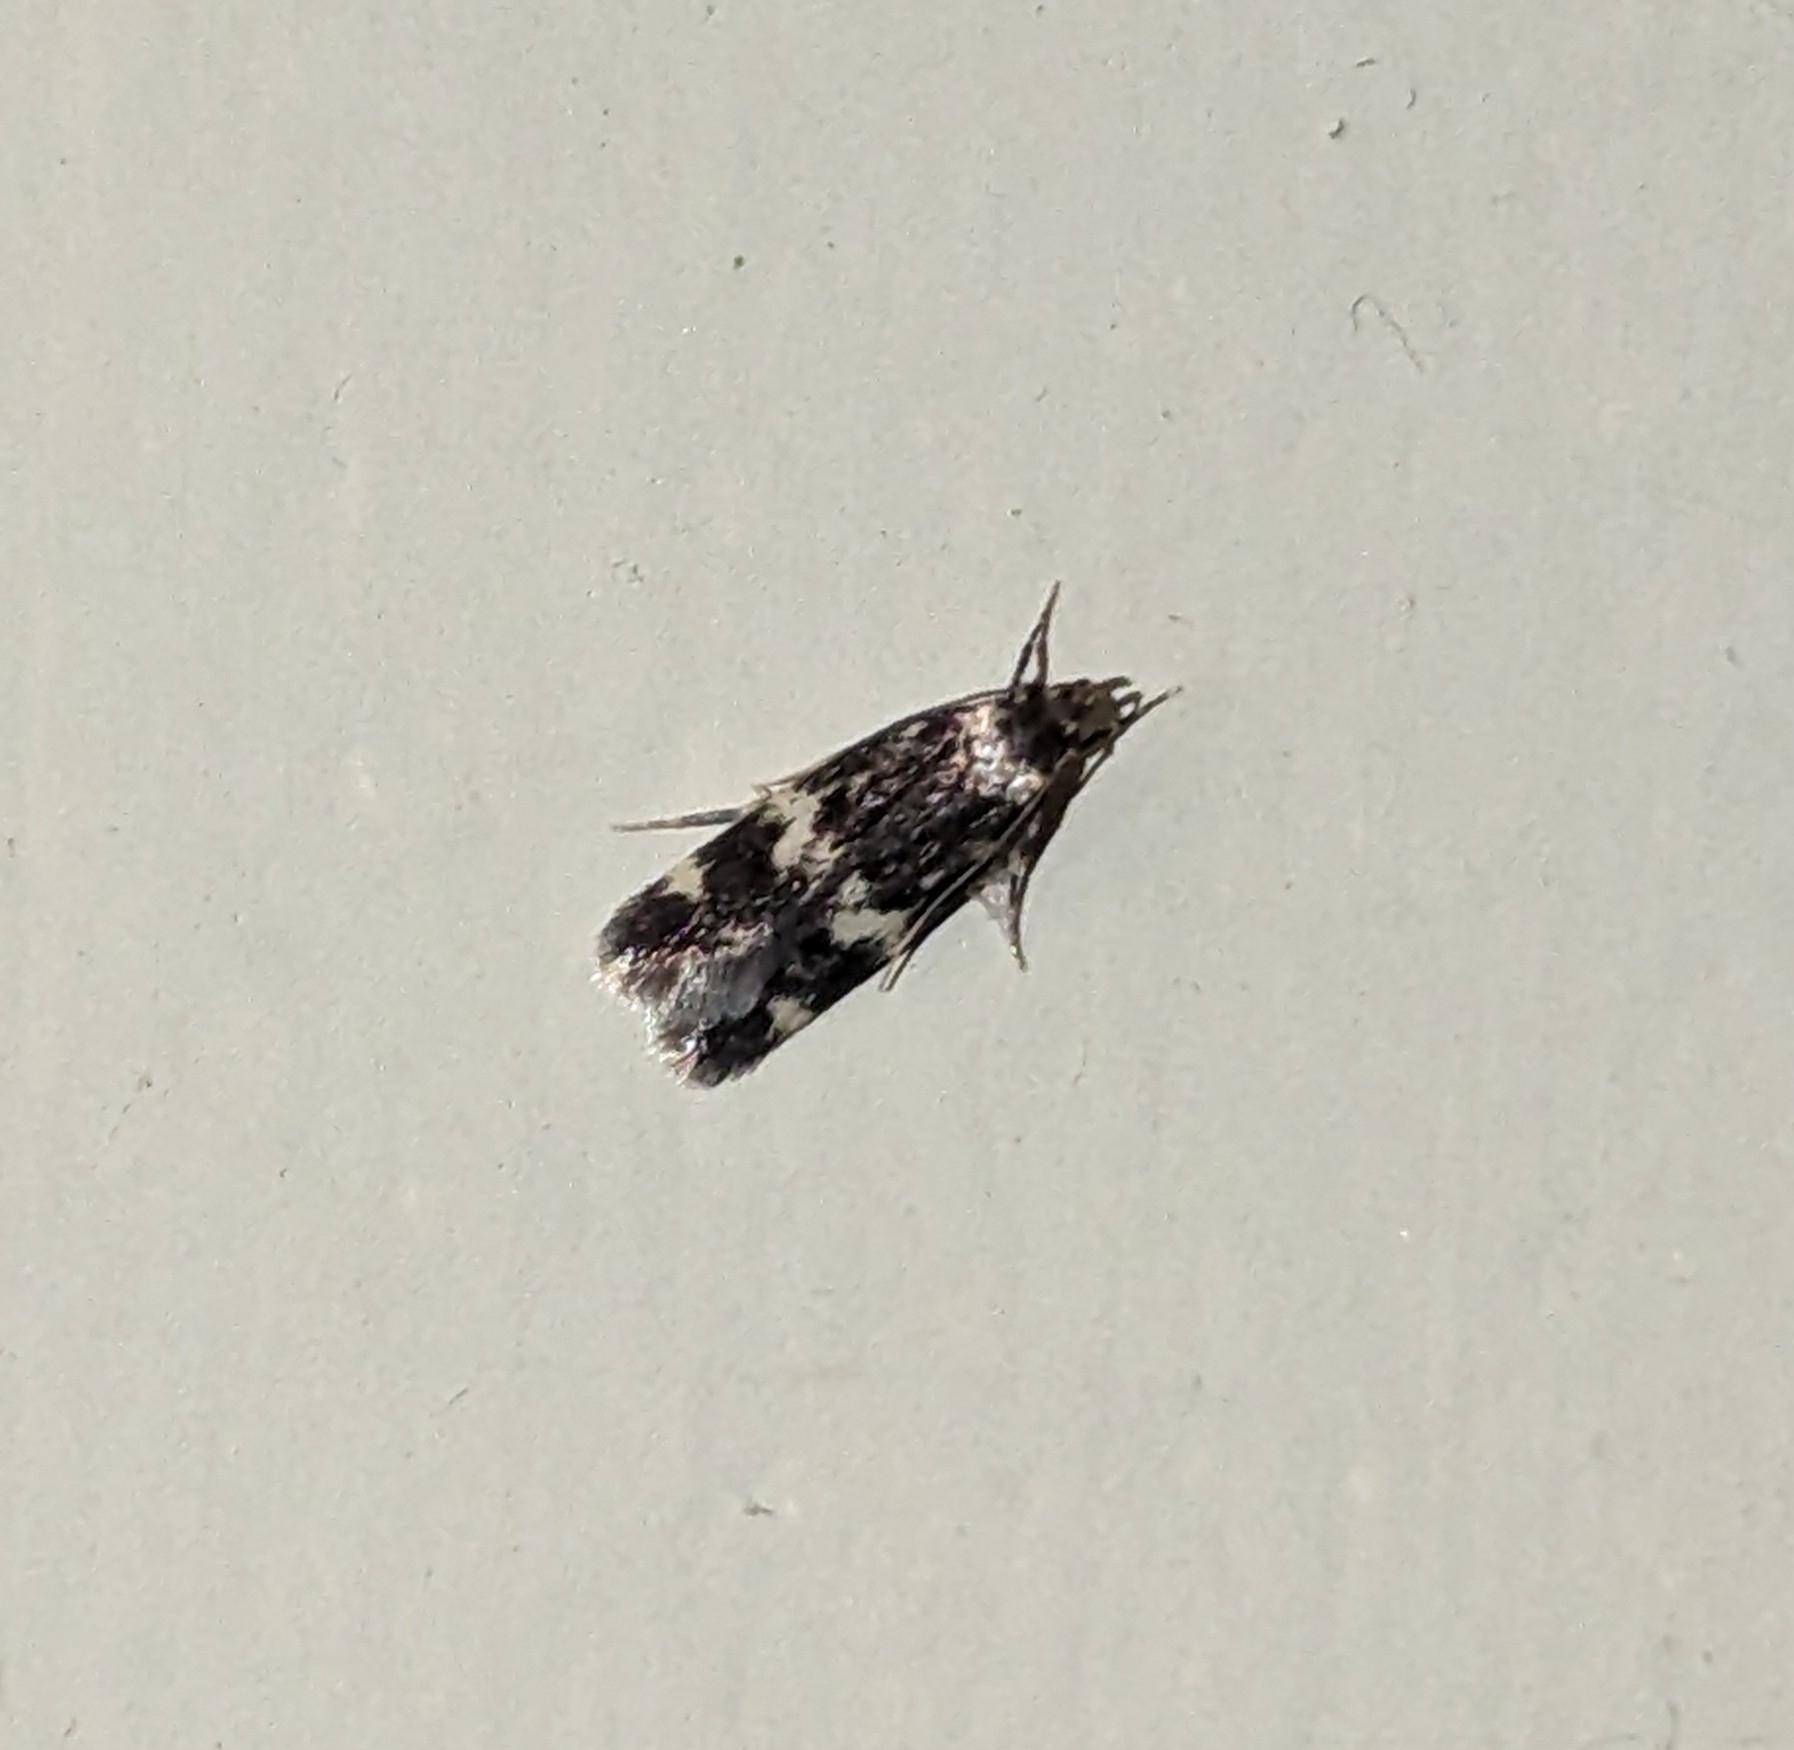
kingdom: Animalia
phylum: Arthropoda
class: Insecta
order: Lepidoptera
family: Autostichidae
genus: Oegoconia
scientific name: Oegoconia quadripuncta
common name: Four-spotted obscure
